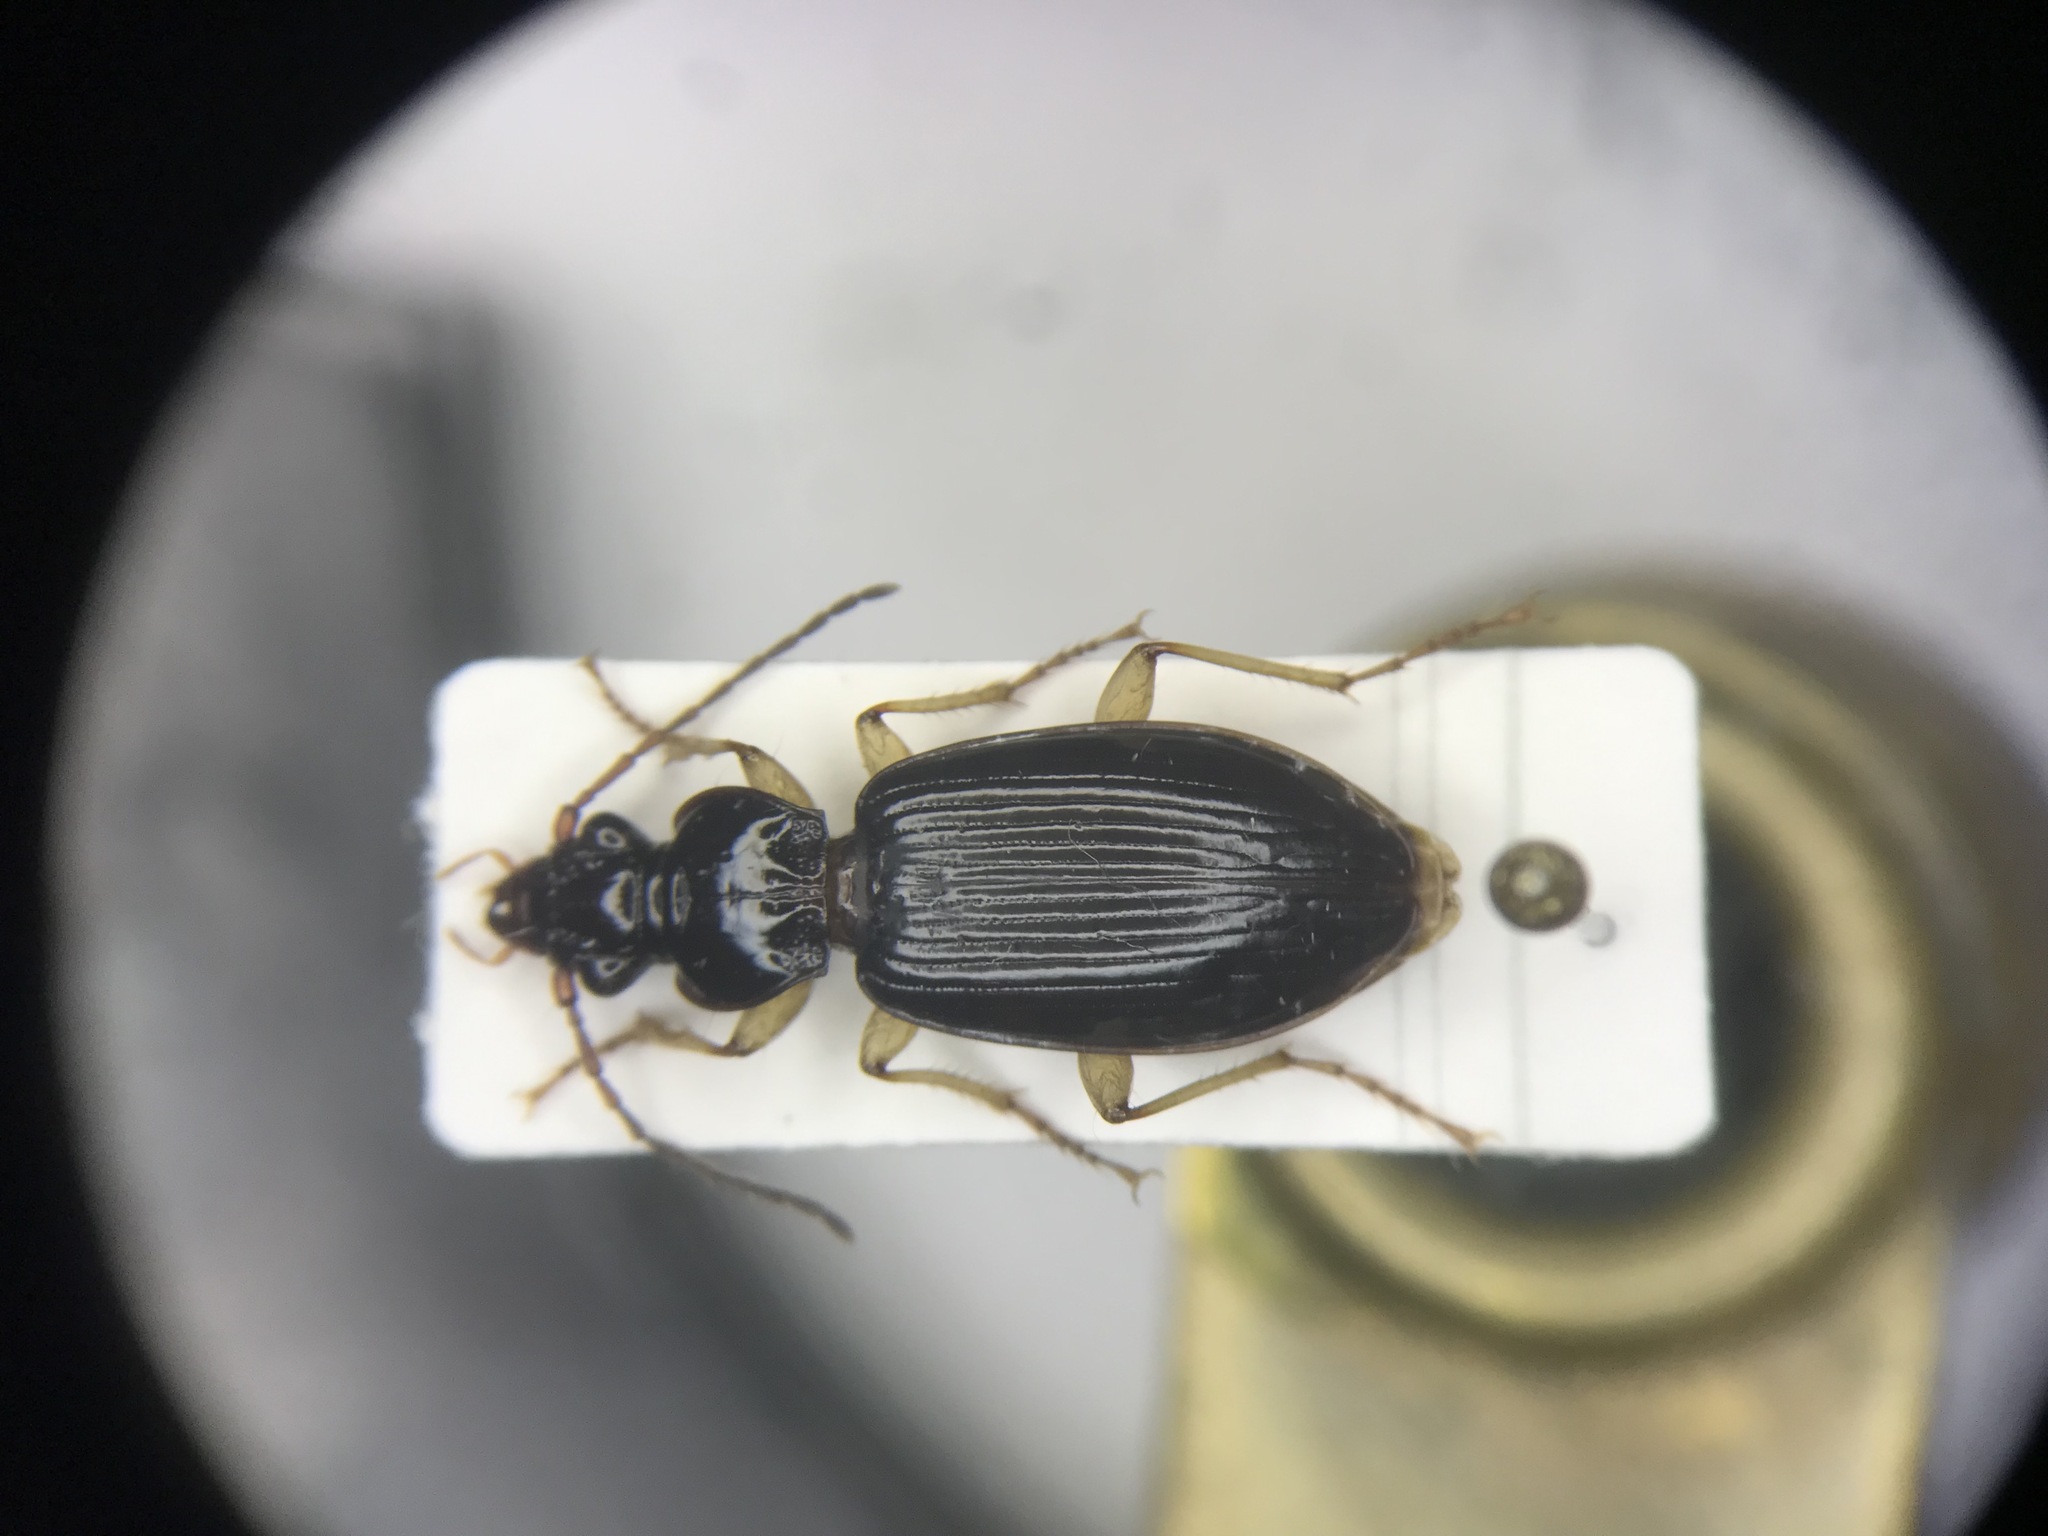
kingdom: Animalia
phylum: Arthropoda
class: Insecta
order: Coleoptera
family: Carabidae
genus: Patrobus
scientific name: Patrobus longicornis
